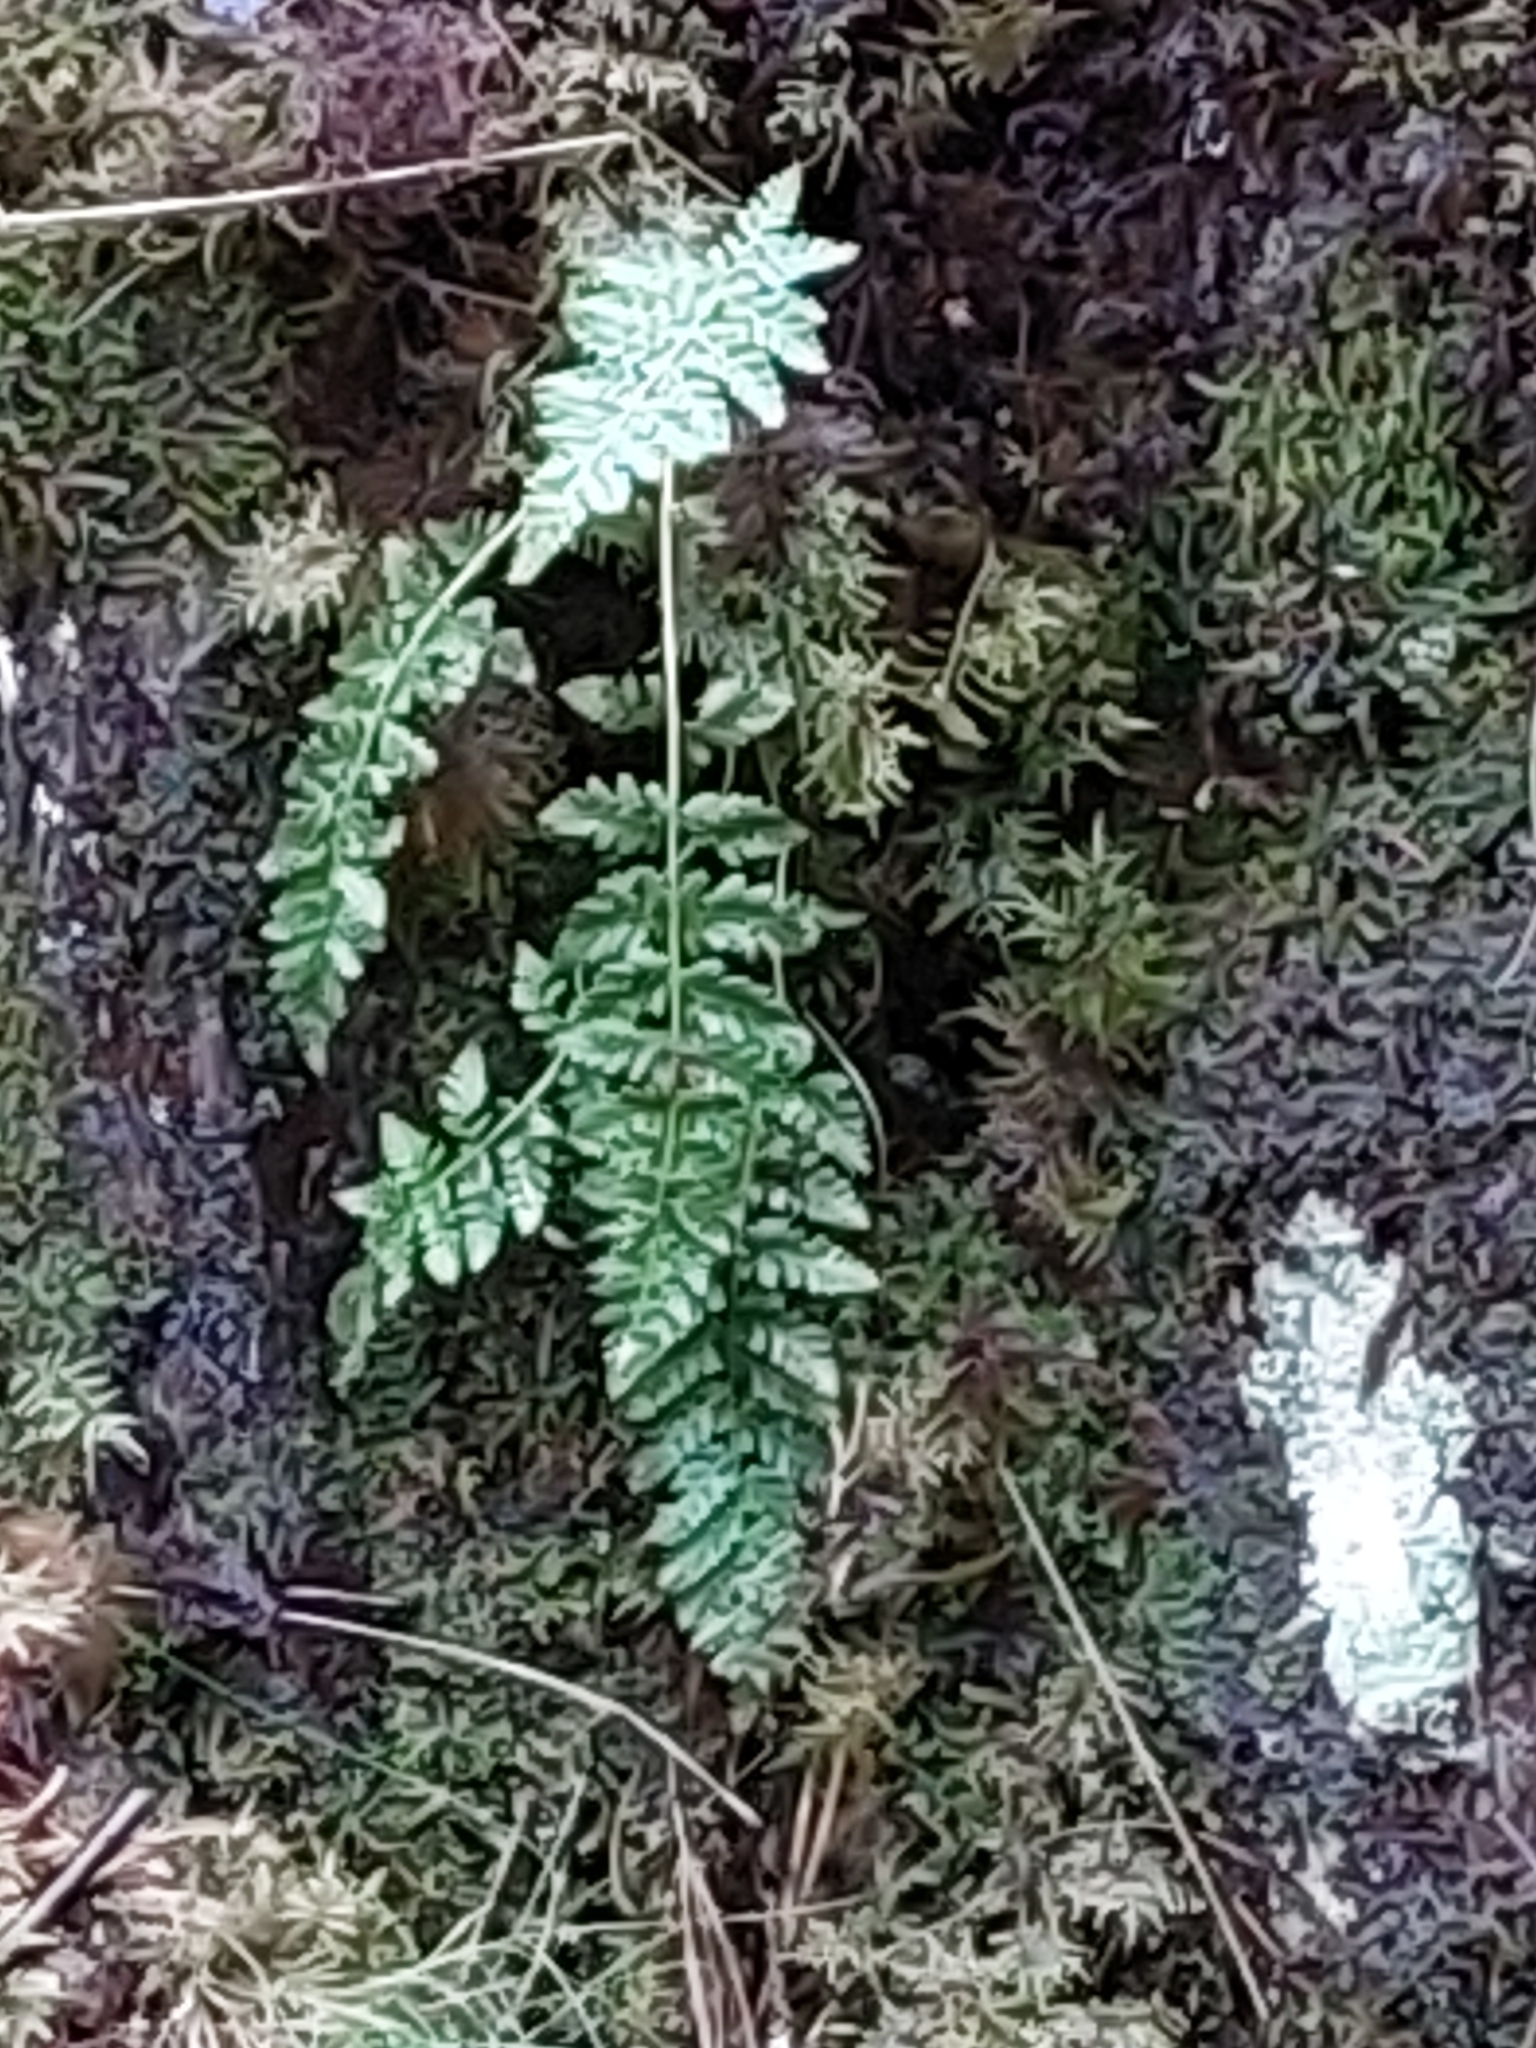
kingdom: Plantae
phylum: Tracheophyta
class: Polypodiopsida
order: Polypodiales
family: Cystopteridaceae
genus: Cystopteris
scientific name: Cystopteris fragilis
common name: Brittle bladder fern
